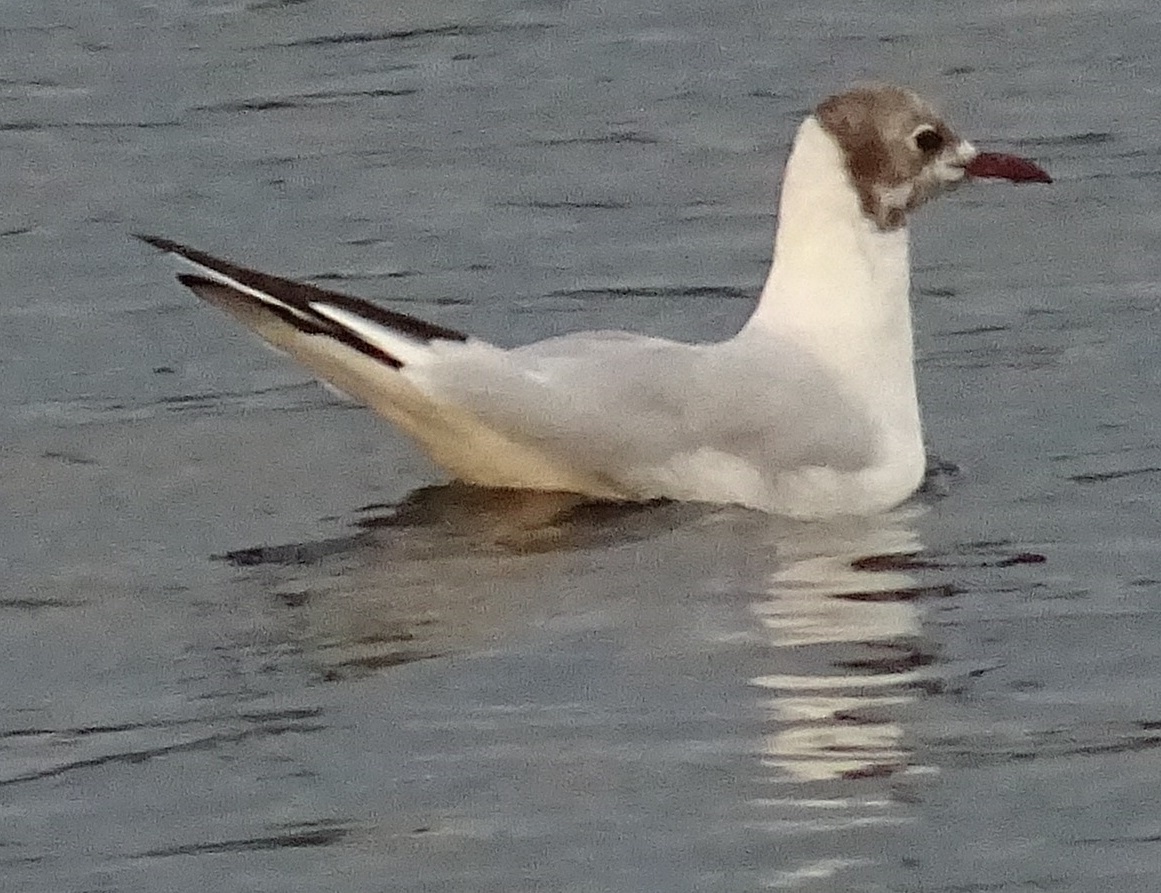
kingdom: Animalia
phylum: Chordata
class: Aves
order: Charadriiformes
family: Laridae
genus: Chroicocephalus
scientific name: Chroicocephalus ridibundus
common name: Black-headed gull
